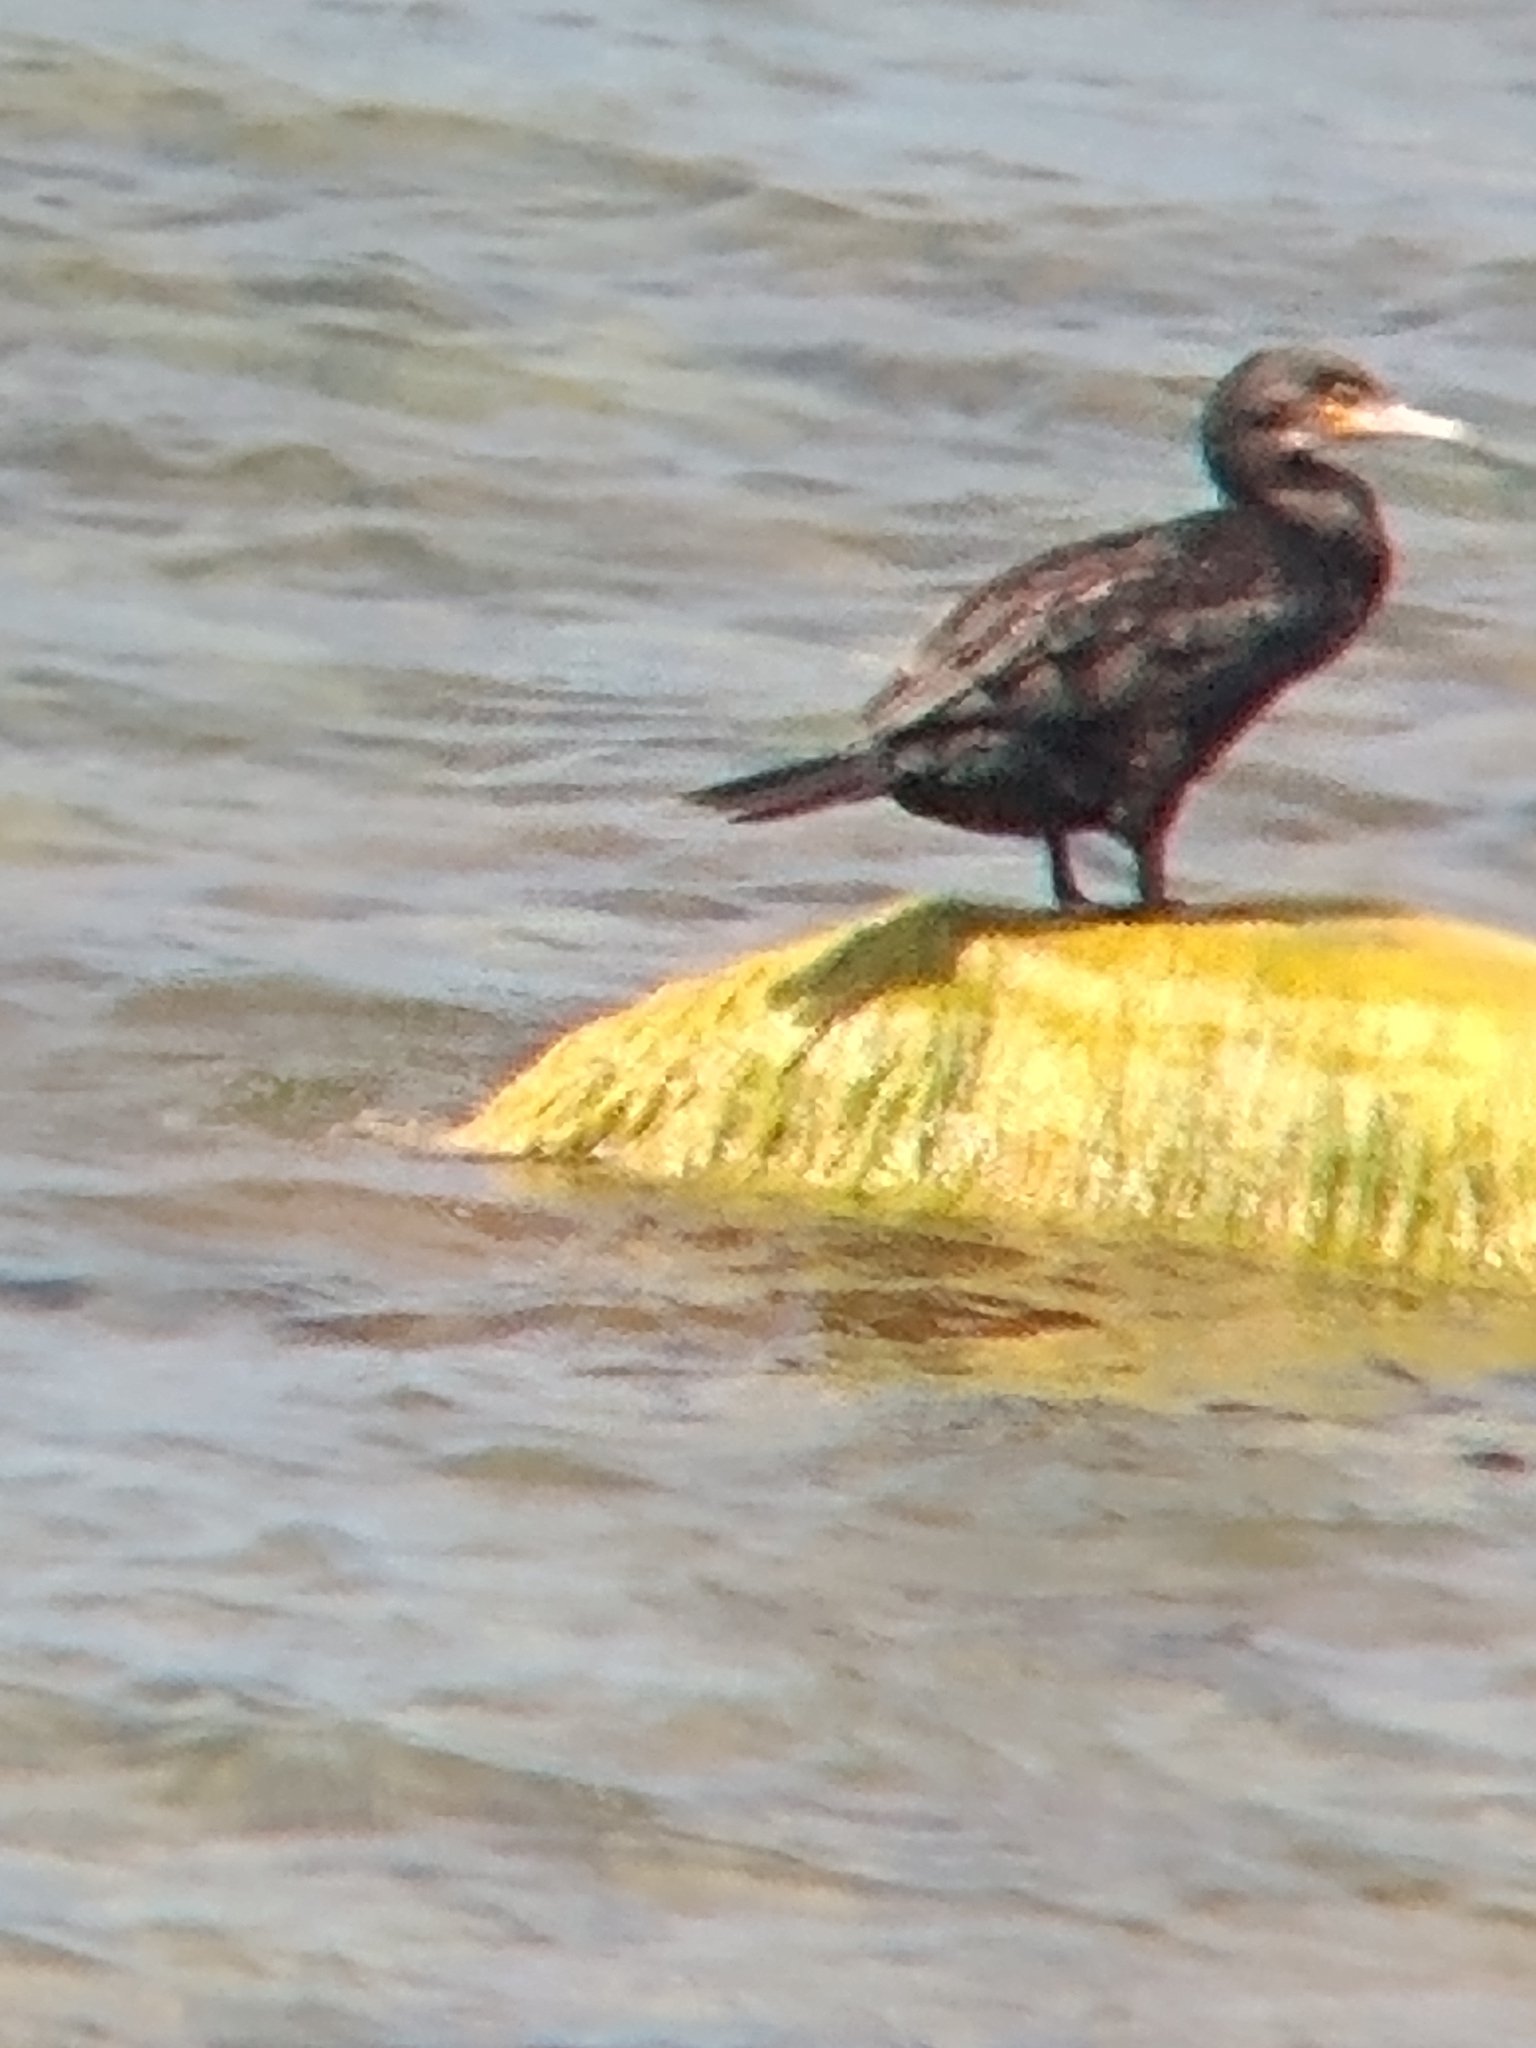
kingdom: Animalia
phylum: Chordata
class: Aves
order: Suliformes
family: Phalacrocoracidae
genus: Phalacrocorax
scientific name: Phalacrocorax carbo
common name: Great cormorant
